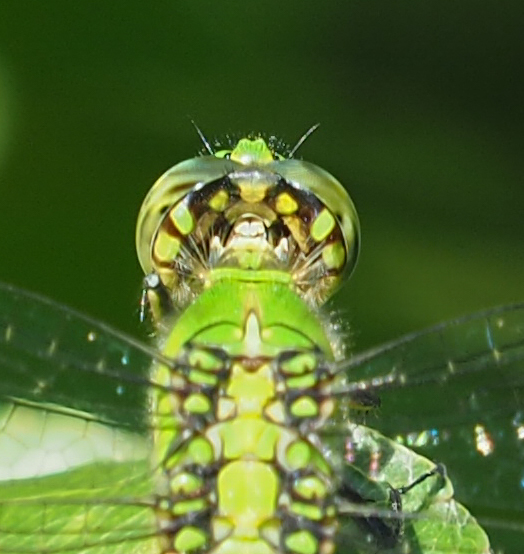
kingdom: Animalia
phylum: Arthropoda
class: Insecta
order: Odonata
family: Libellulidae
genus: Erythemis
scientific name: Erythemis simplicicollis
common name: Eastern pondhawk
